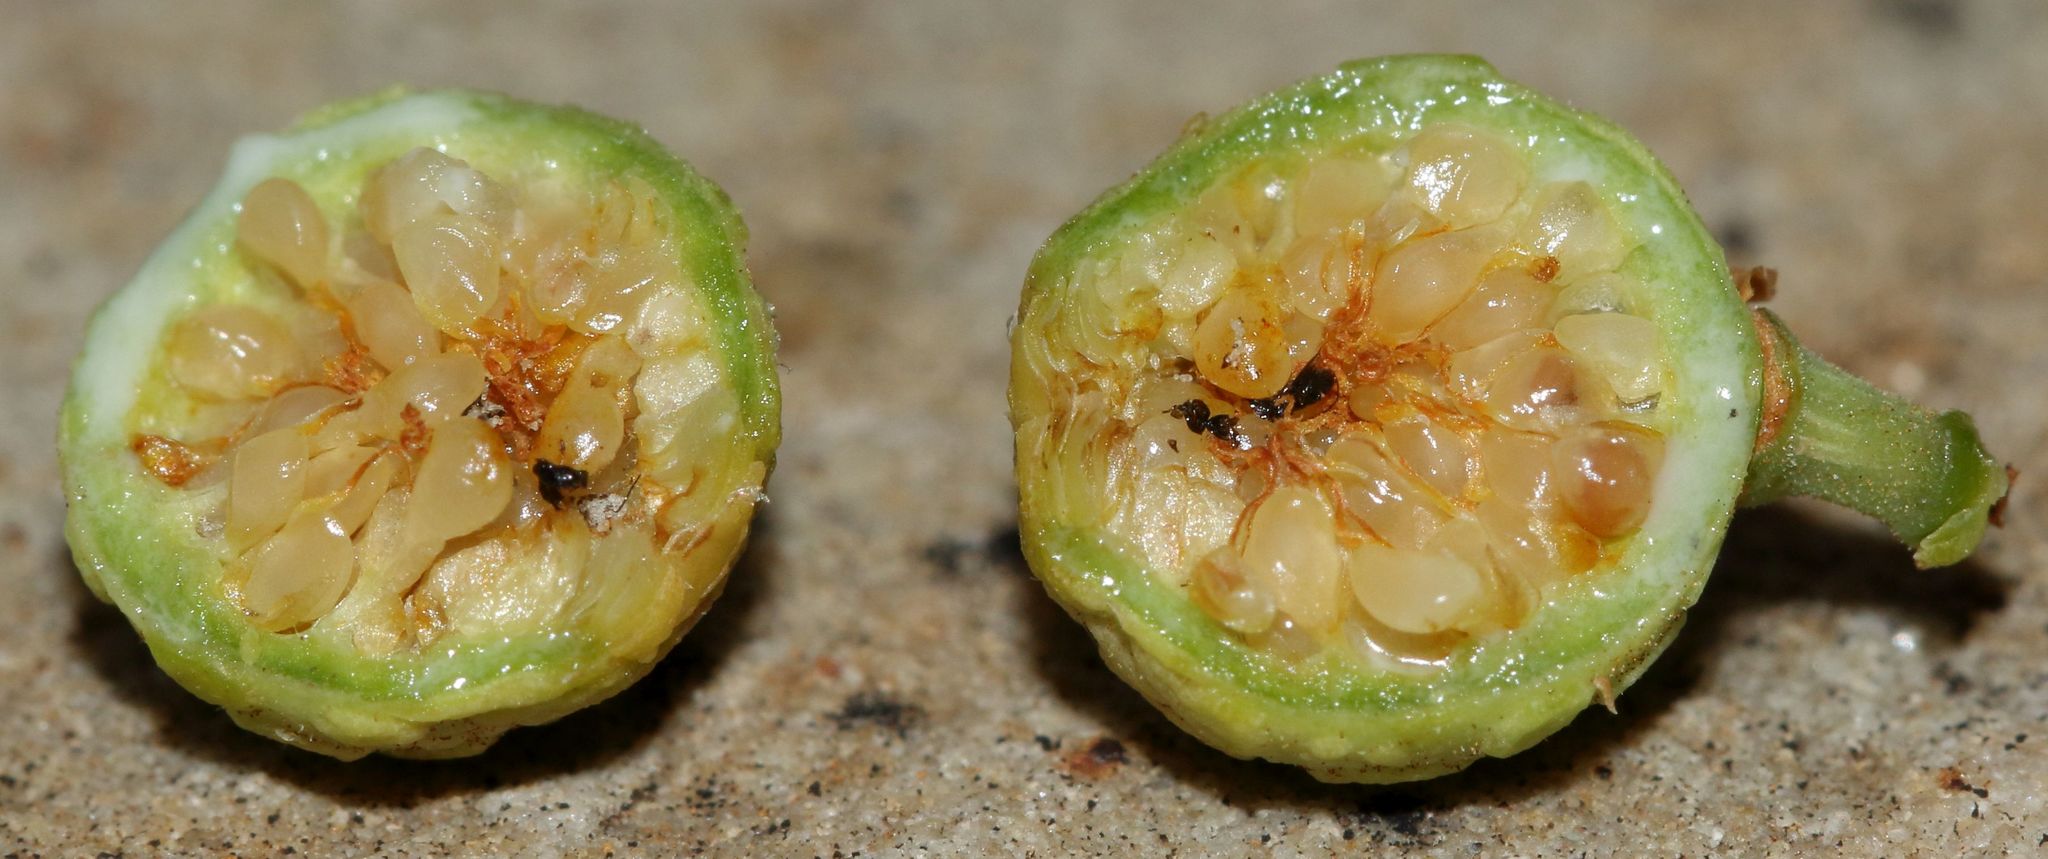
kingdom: Plantae
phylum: Tracheophyta
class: Magnoliopsida
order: Rosales
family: Moraceae
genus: Ficus
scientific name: Ficus salicifolia
